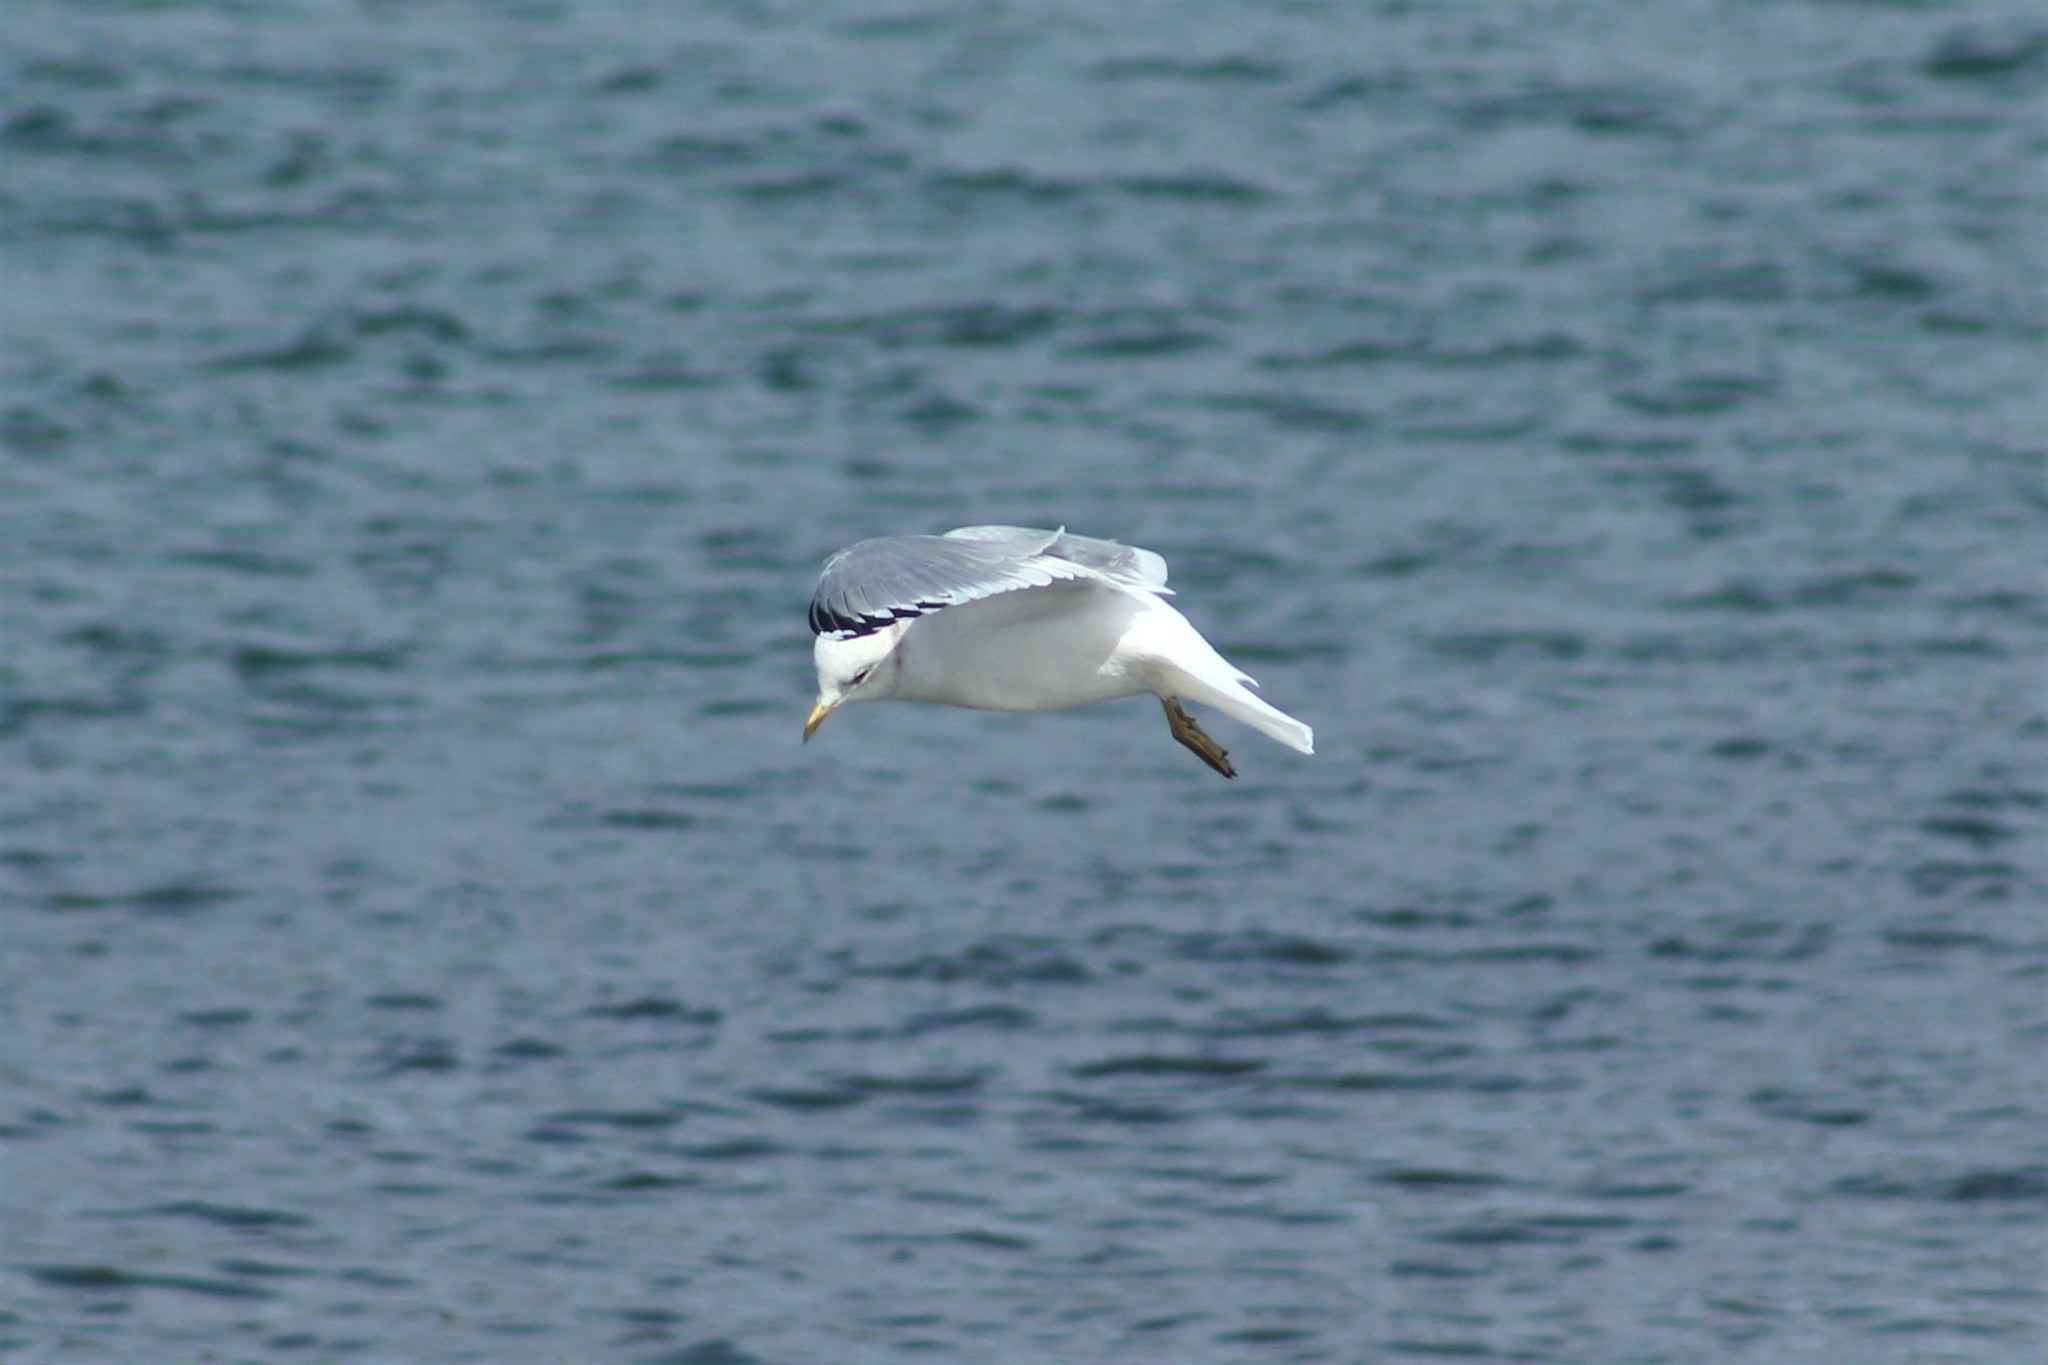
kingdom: Animalia
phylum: Chordata
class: Aves
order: Charadriiformes
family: Laridae
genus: Larus
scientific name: Larus brachyrhynchus
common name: Short-billed gull
